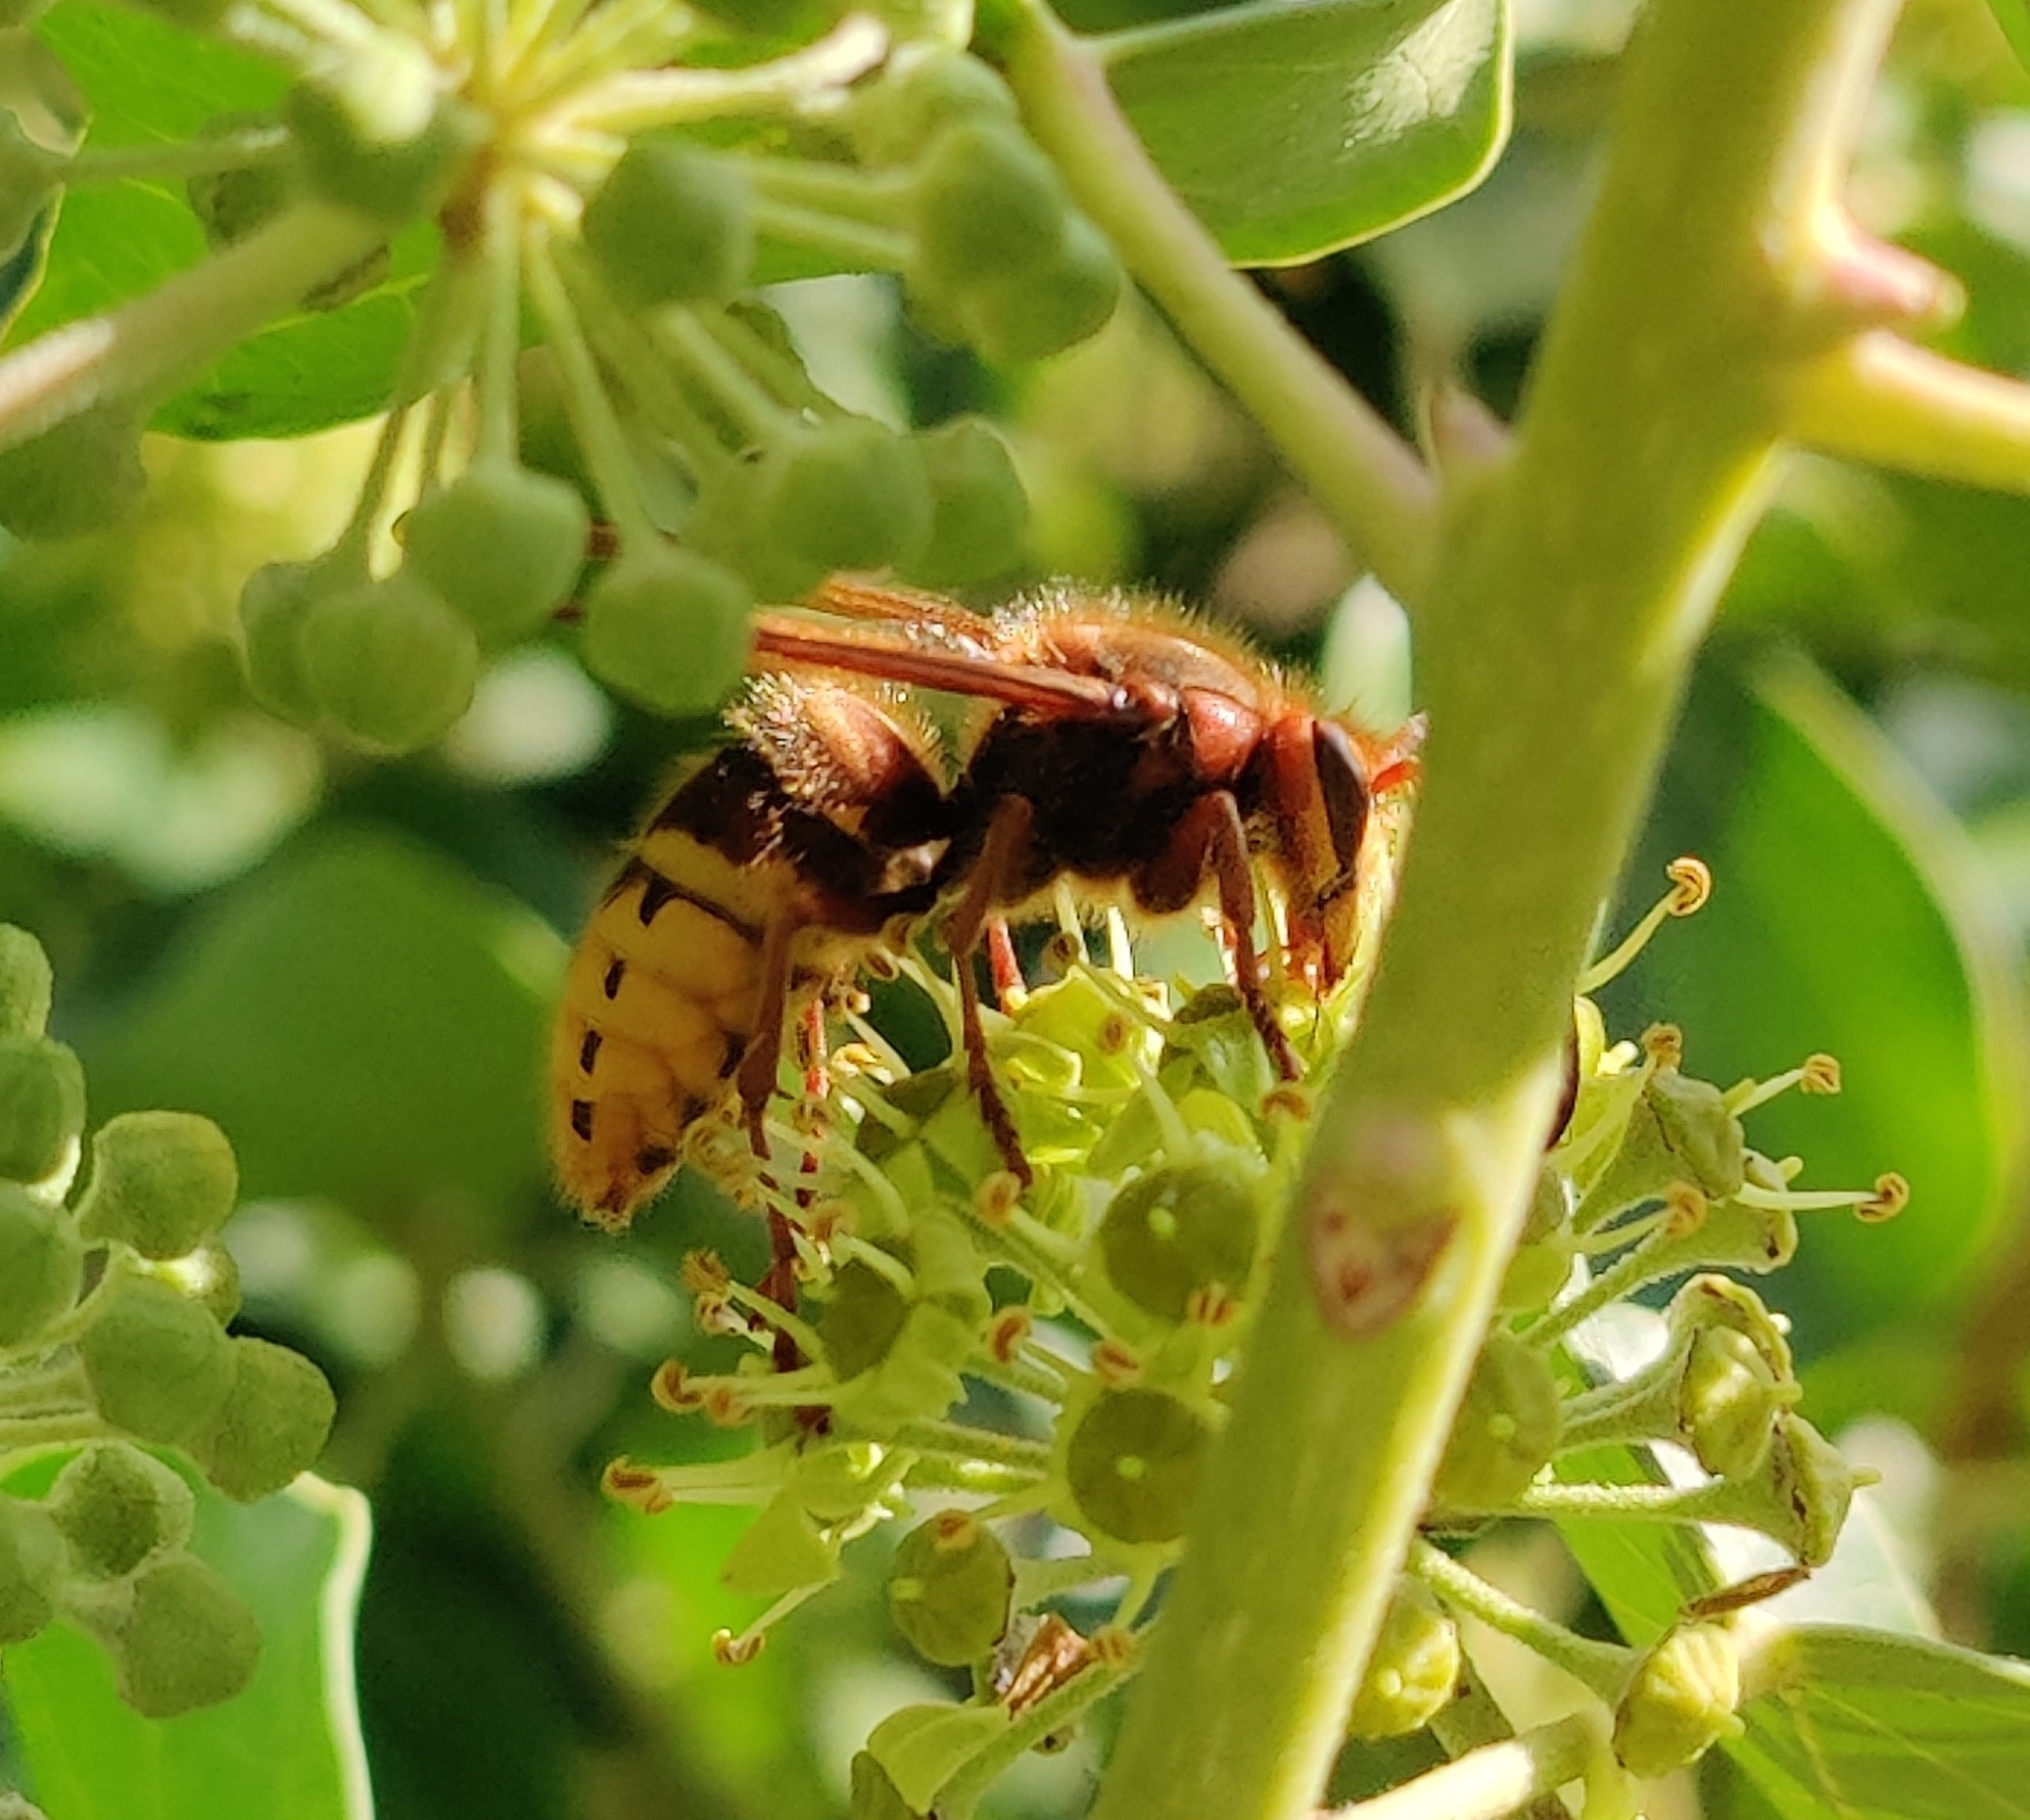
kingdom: Animalia
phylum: Arthropoda
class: Insecta
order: Hymenoptera
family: Vespidae
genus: Vespa
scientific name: Vespa crabro
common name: Hornet
